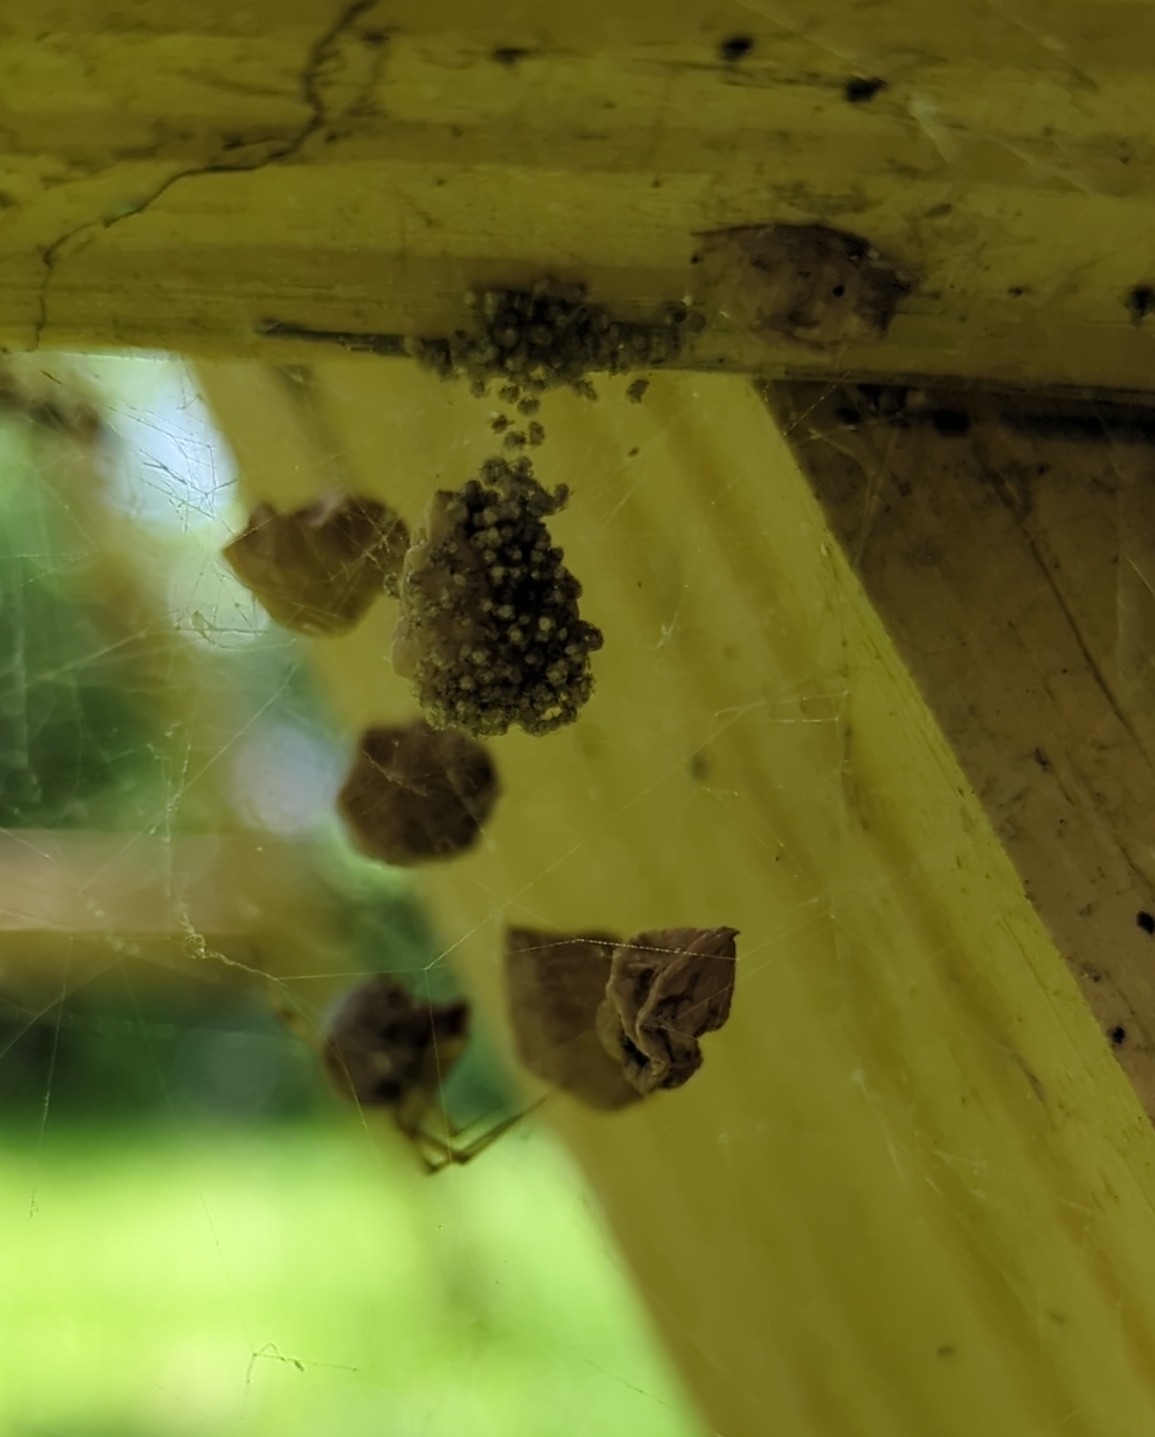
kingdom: Animalia
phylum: Arthropoda
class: Arachnida
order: Araneae
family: Theridiidae
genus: Parasteatoda
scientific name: Parasteatoda tepidariorum
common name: Common house spider
